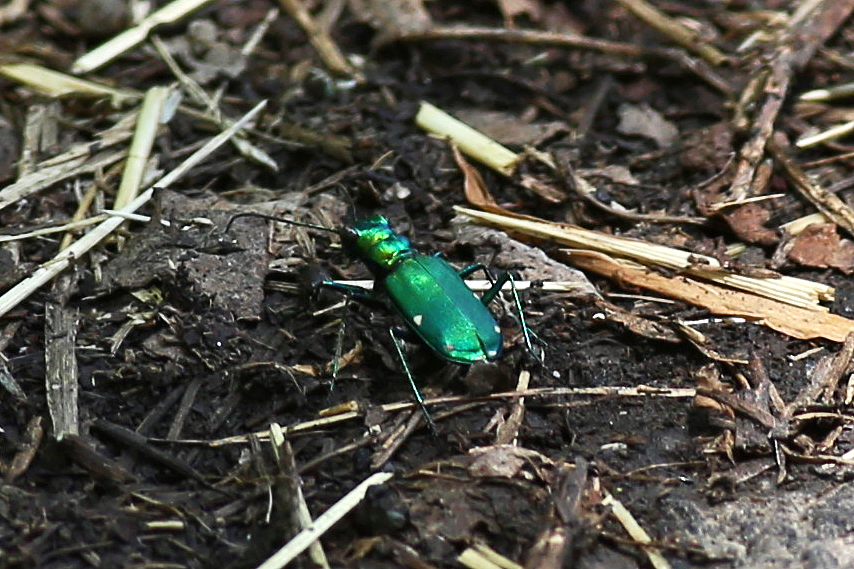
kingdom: Animalia
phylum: Arthropoda
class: Insecta
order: Coleoptera
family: Carabidae
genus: Cicindela
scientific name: Cicindela sexguttata
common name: Six-spotted tiger beetle
